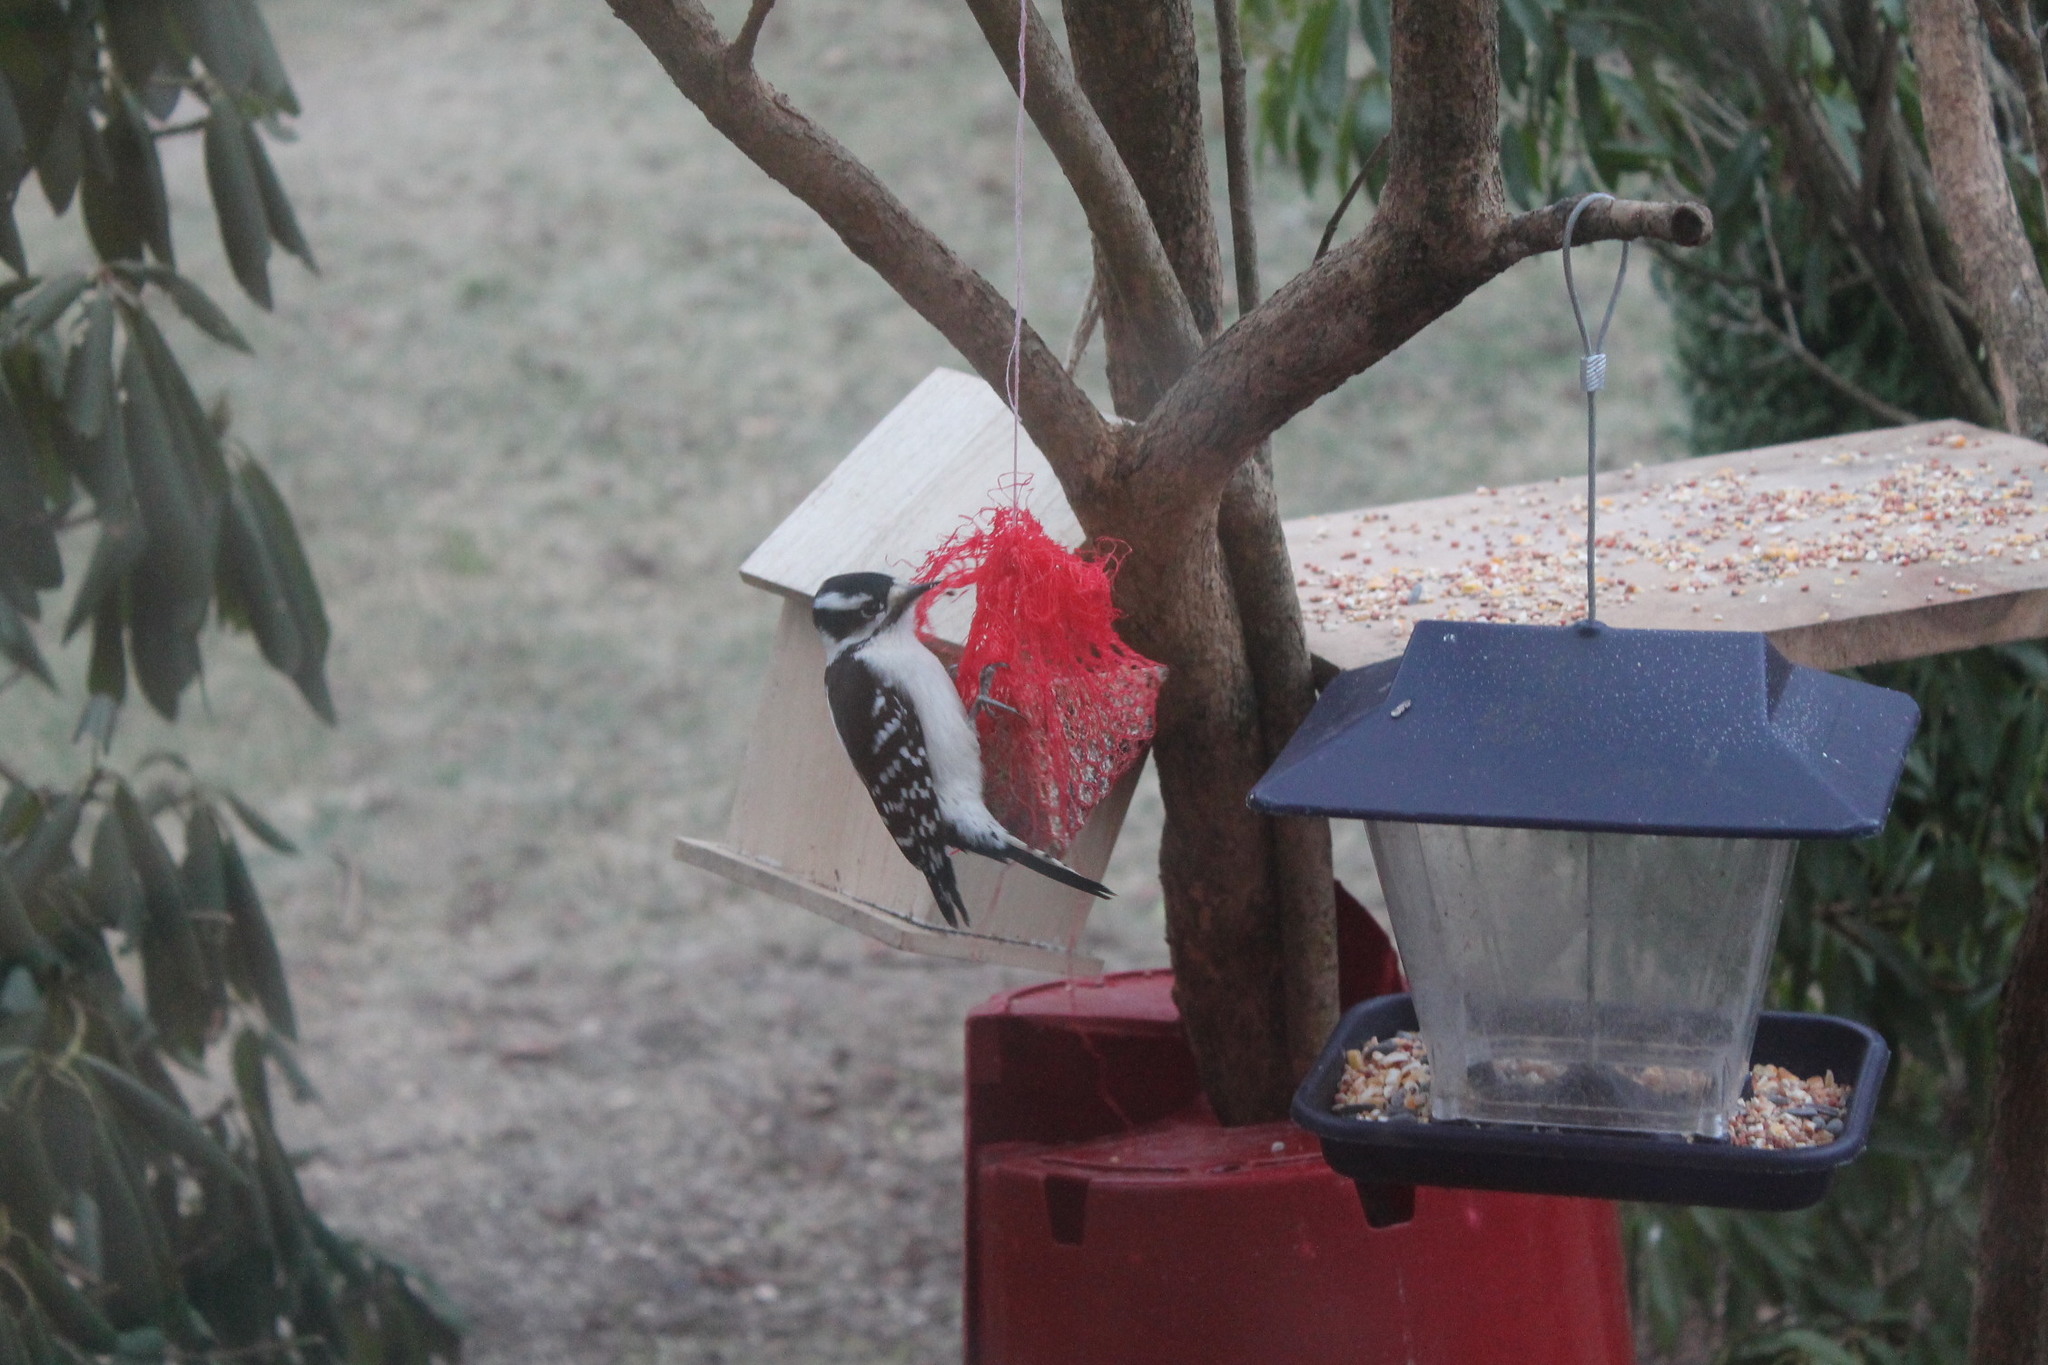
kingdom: Animalia
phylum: Chordata
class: Aves
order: Piciformes
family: Picidae
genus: Dryobates
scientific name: Dryobates pubescens
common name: Downy woodpecker
